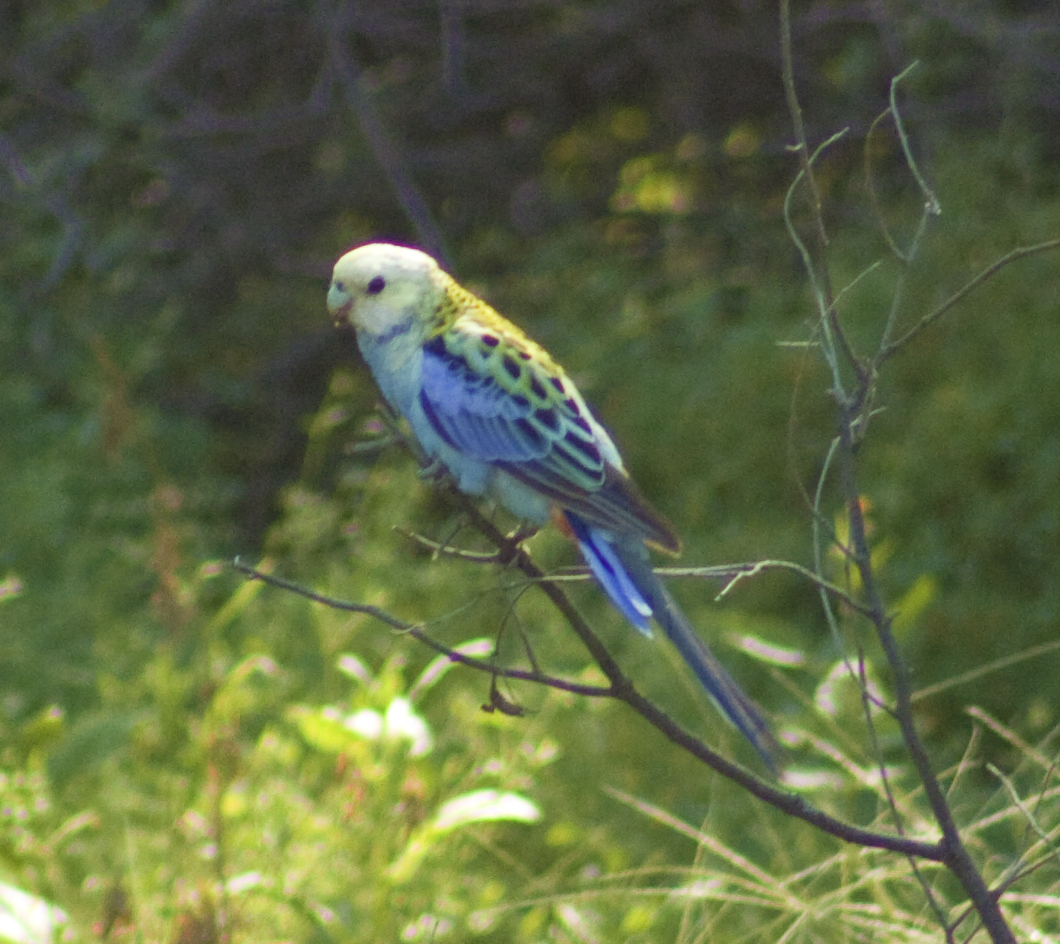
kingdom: Animalia
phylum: Chordata
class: Aves
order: Psittaciformes
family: Psittacidae
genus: Platycercus
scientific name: Platycercus adscitus
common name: Pale-headed rosella
